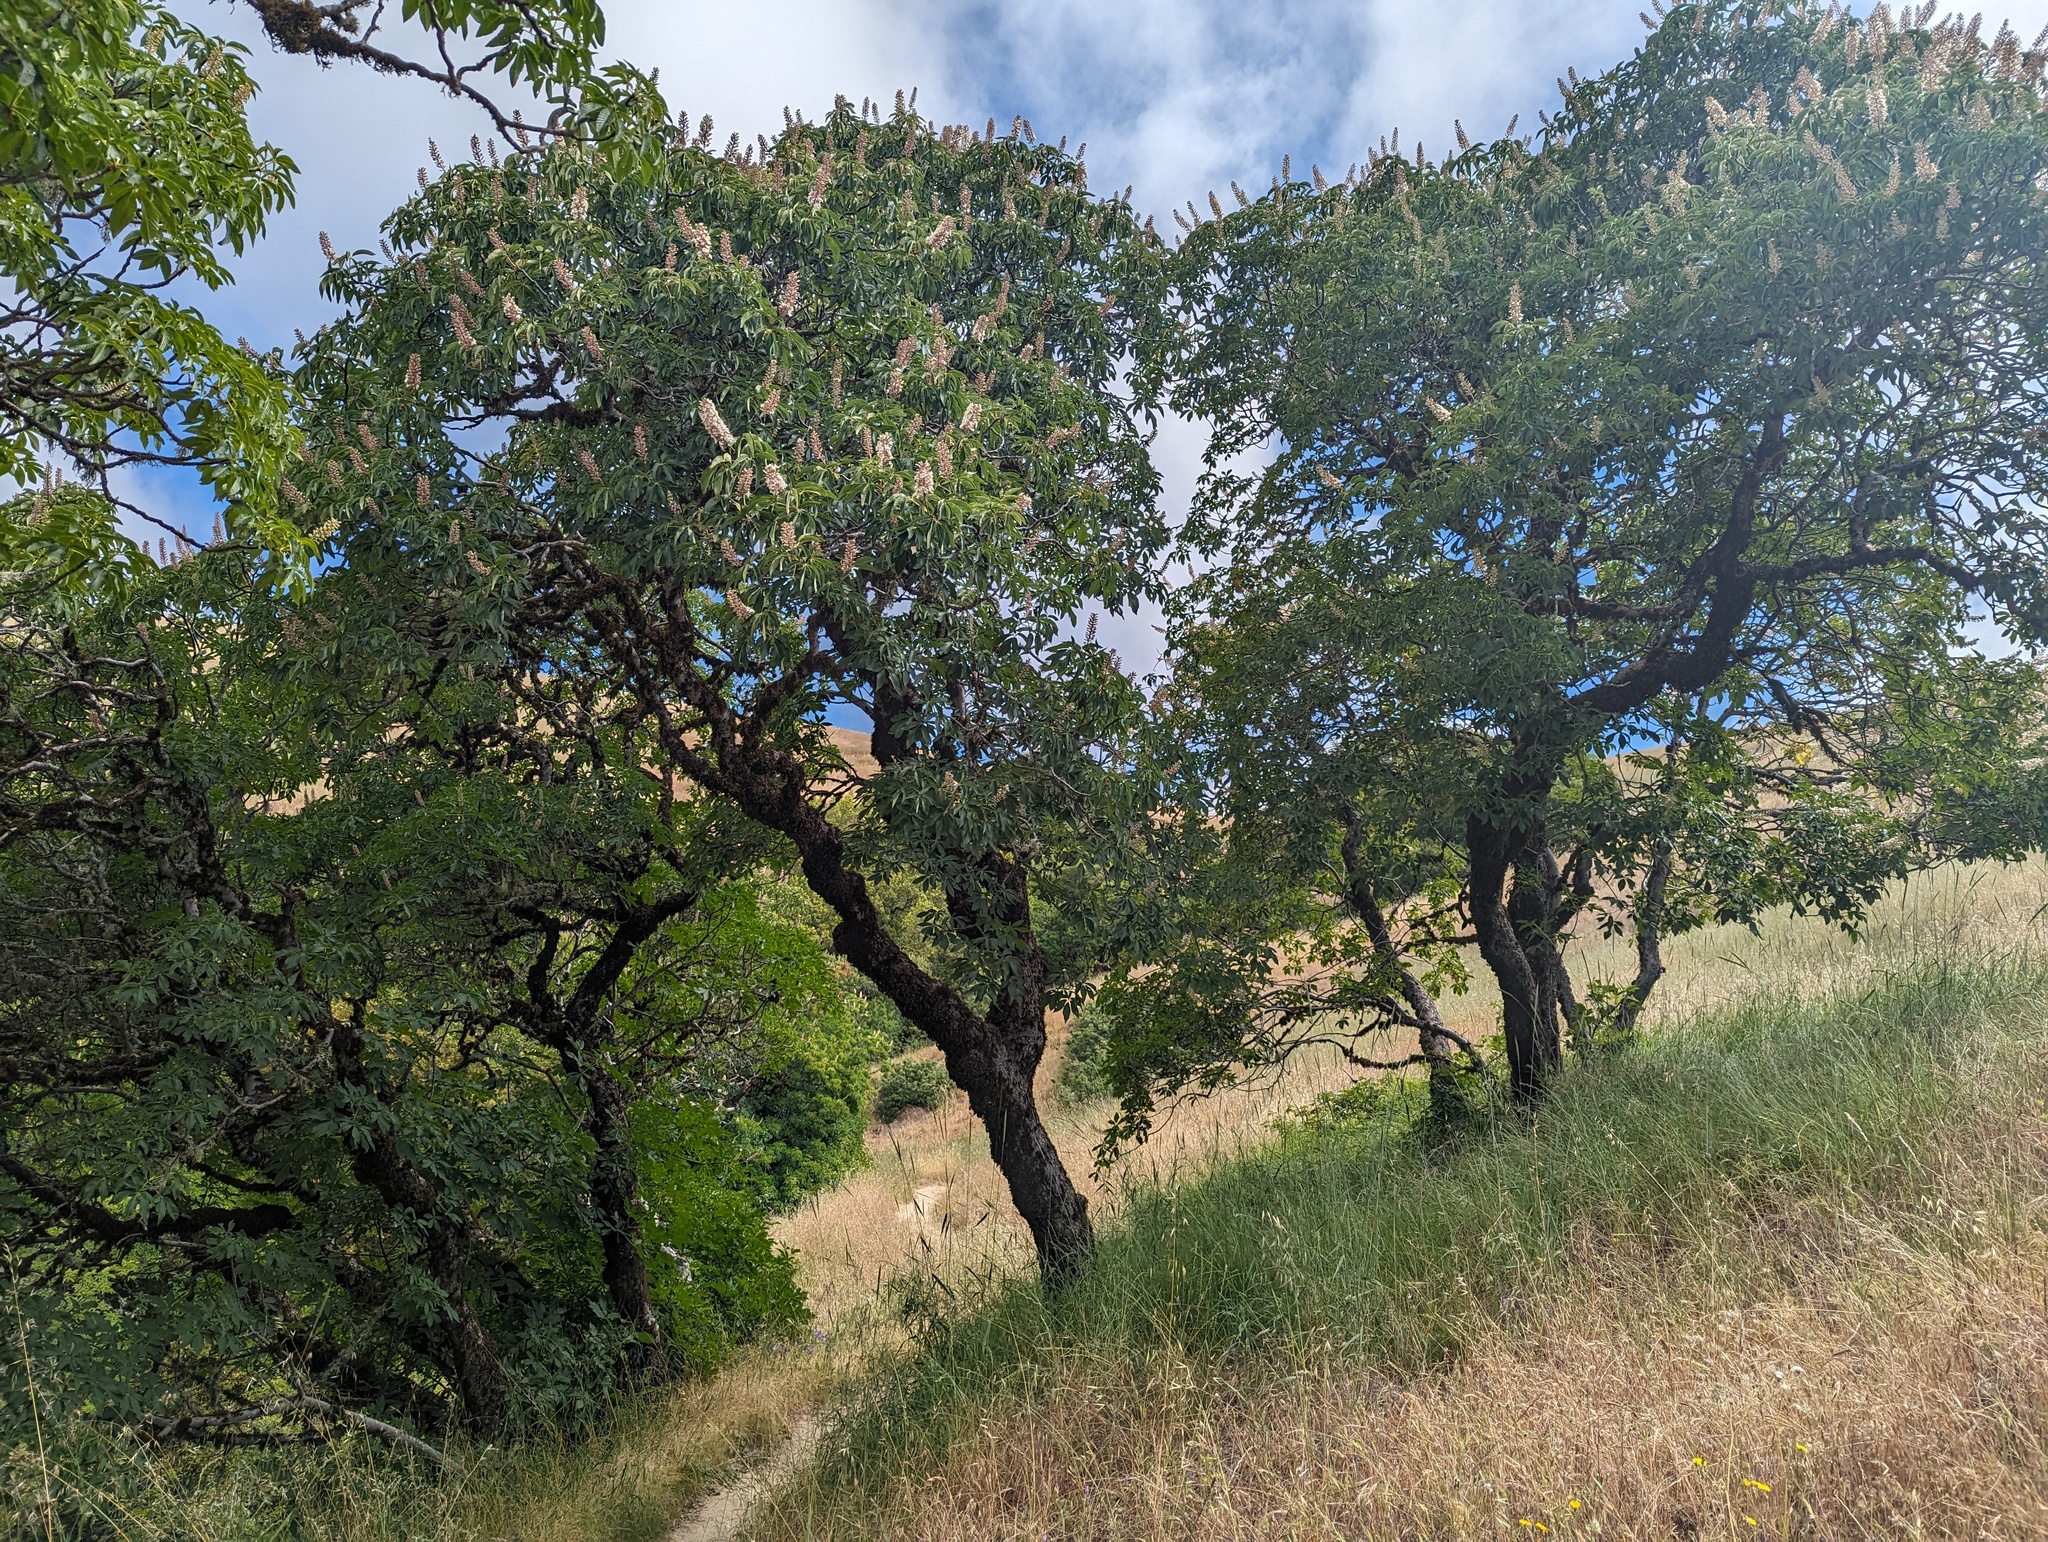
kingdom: Plantae
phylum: Tracheophyta
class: Magnoliopsida
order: Sapindales
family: Sapindaceae
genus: Aesculus
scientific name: Aesculus californica
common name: California buckeye
